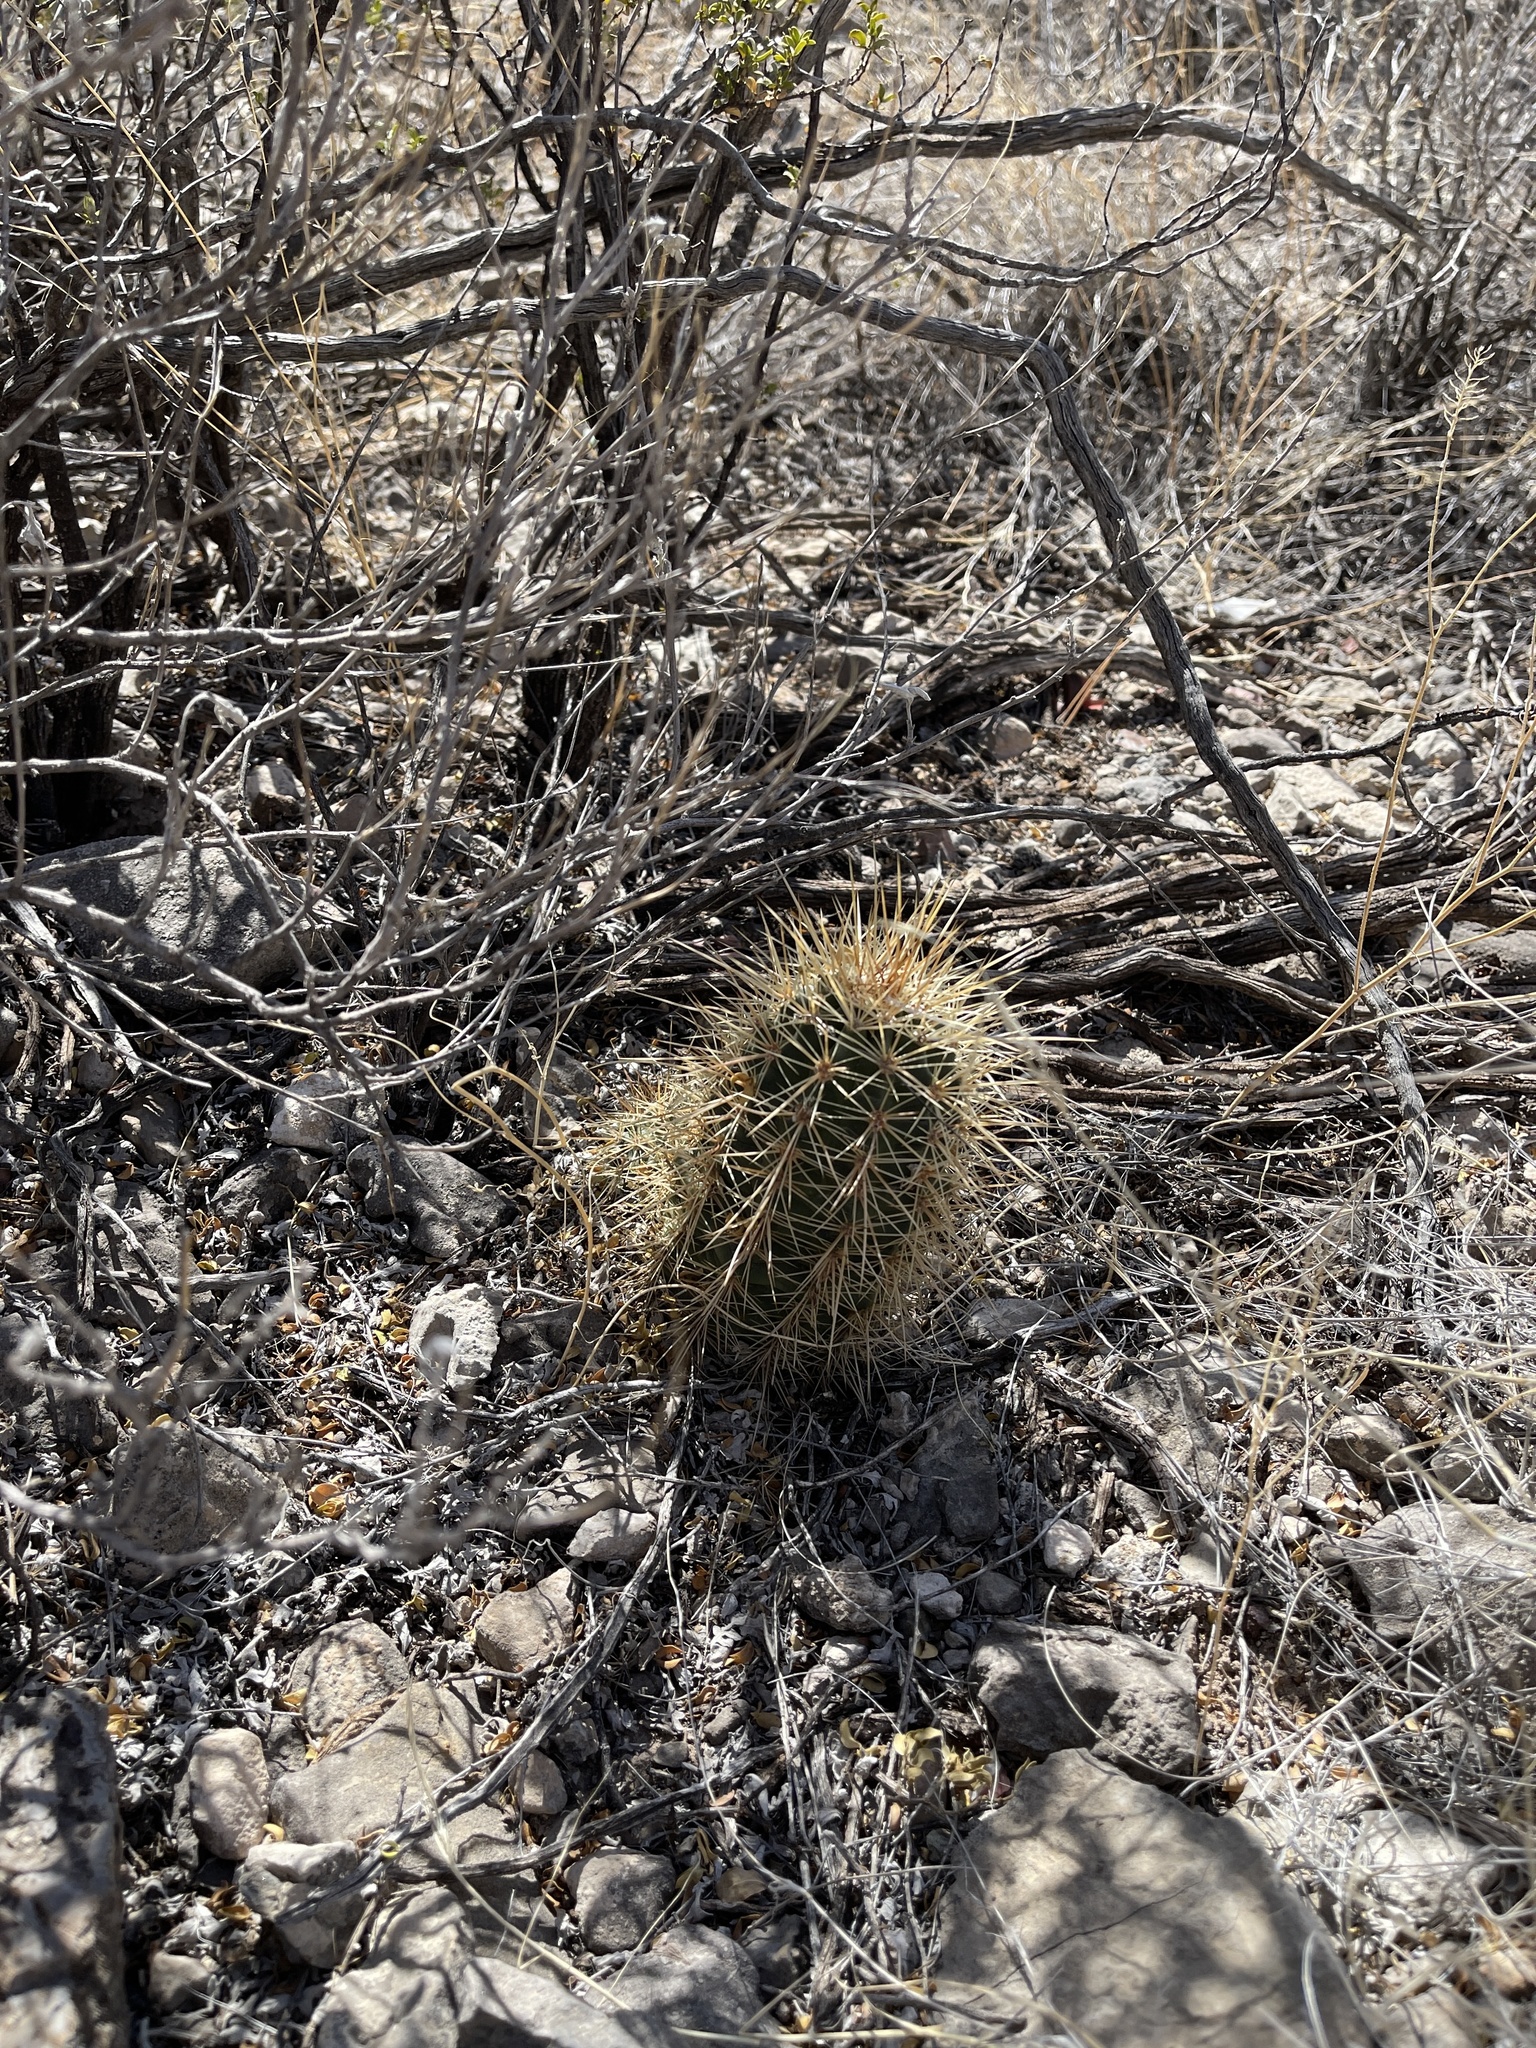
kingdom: Plantae
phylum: Tracheophyta
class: Magnoliopsida
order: Caryophyllales
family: Cactaceae
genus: Echinocereus
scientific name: Echinocereus coccineus
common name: Scarlet hedgehog cactus
